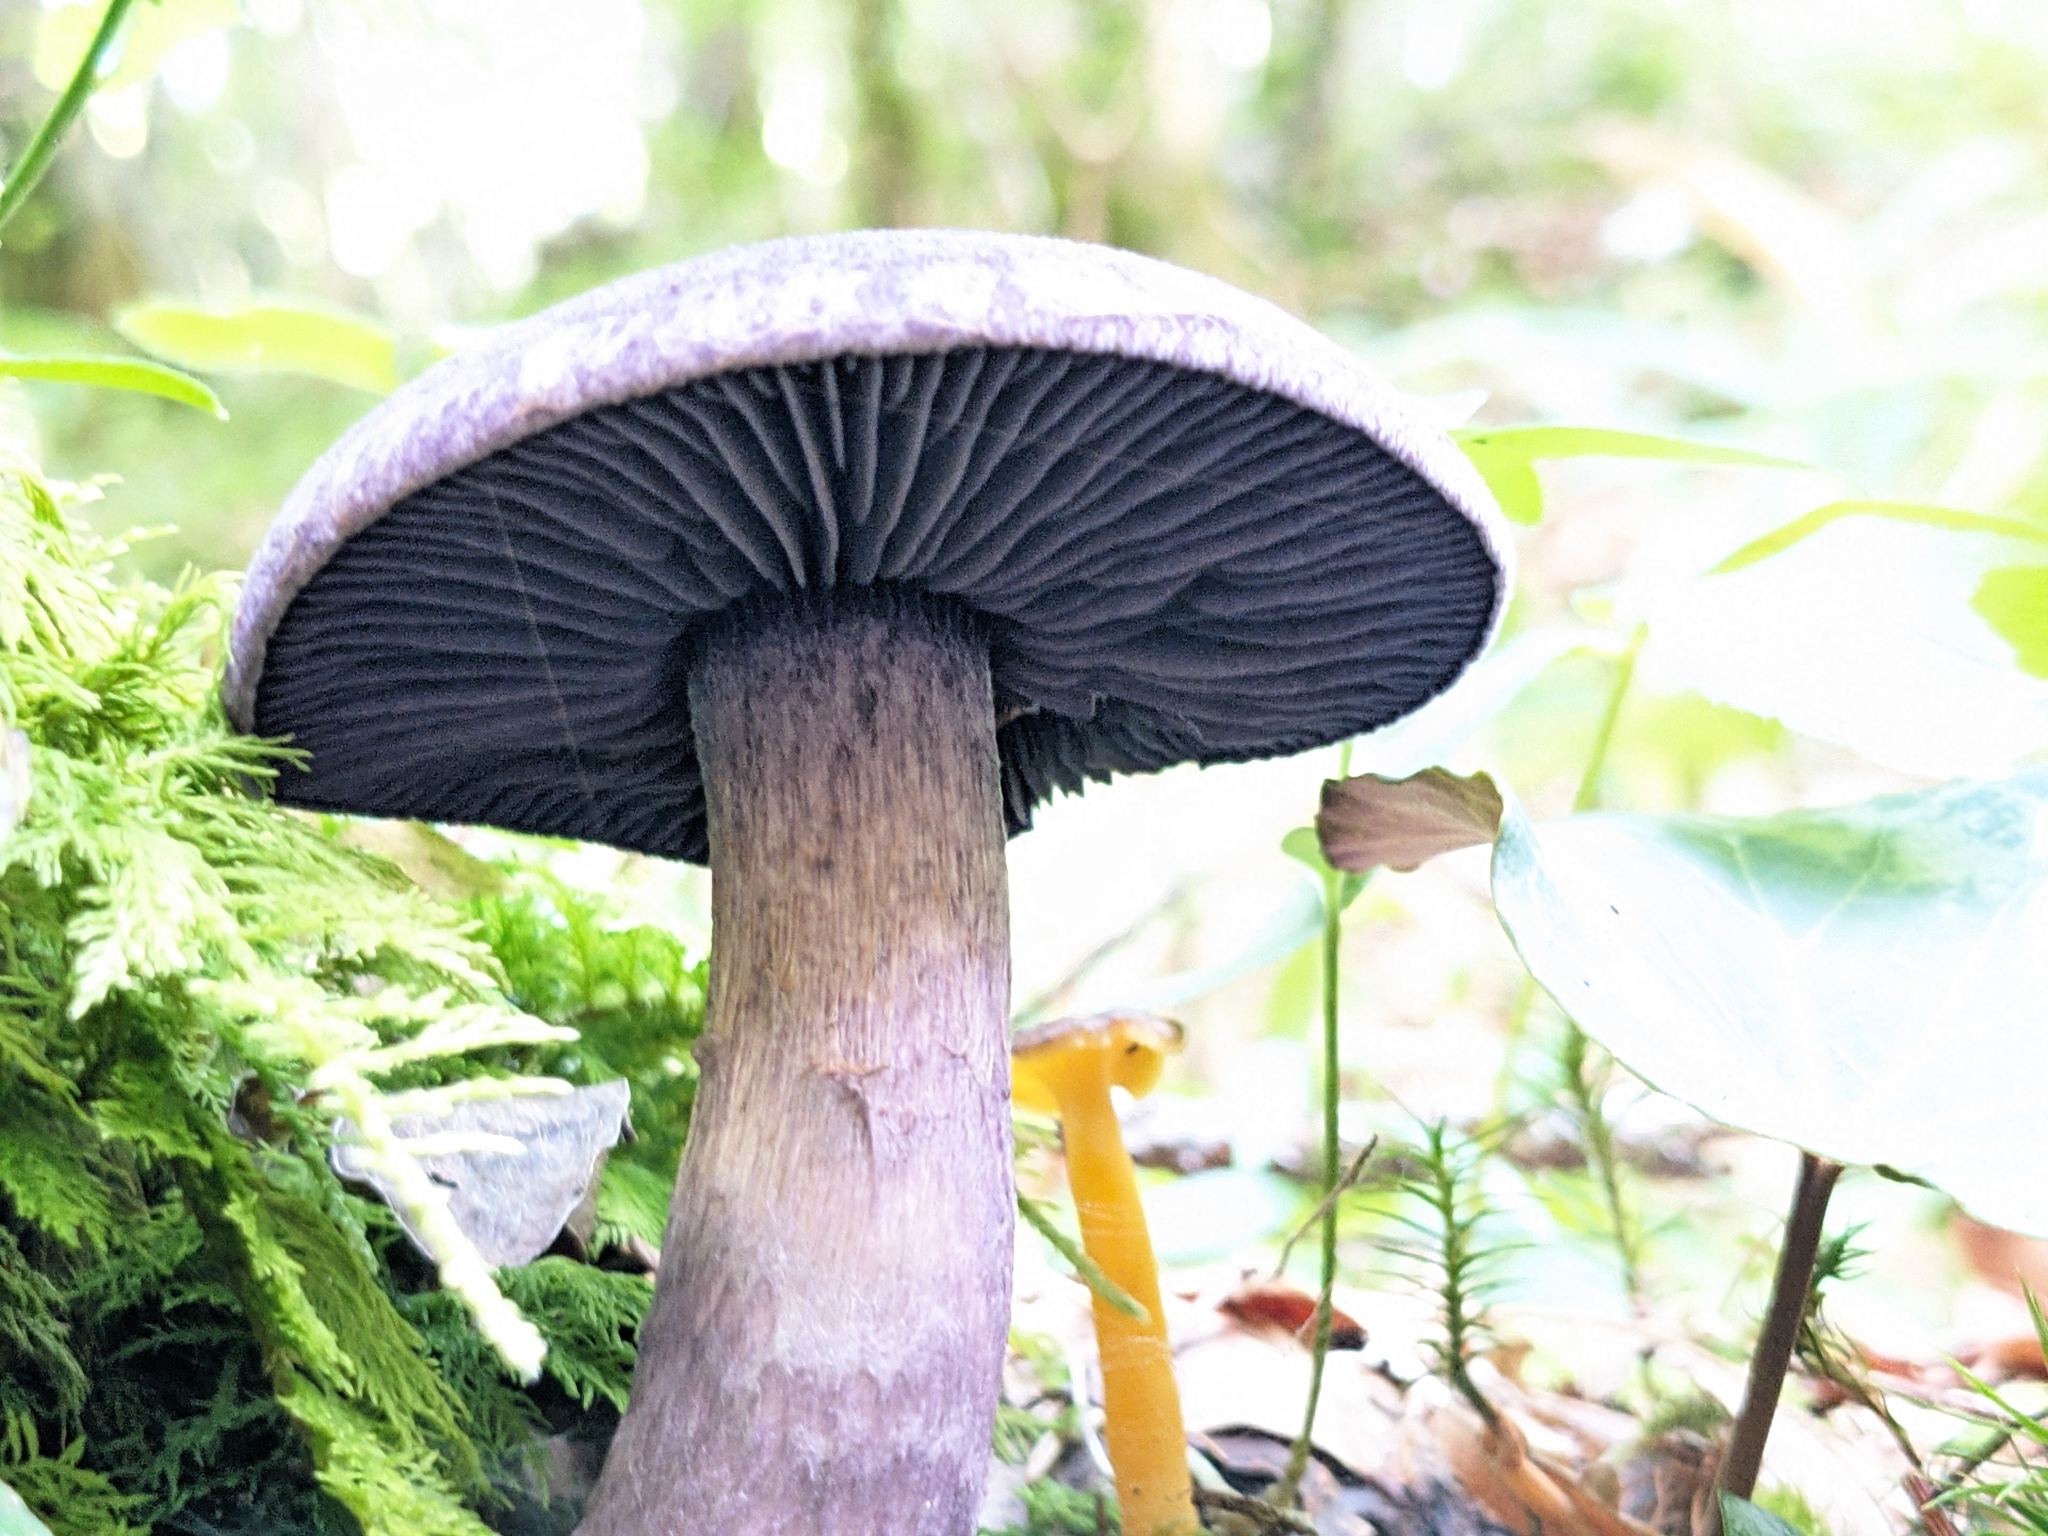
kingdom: Fungi
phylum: Basidiomycota
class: Agaricomycetes
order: Agaricales
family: Cortinariaceae
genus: Cortinarius
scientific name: Cortinarius violaceus
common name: Violet webcap
